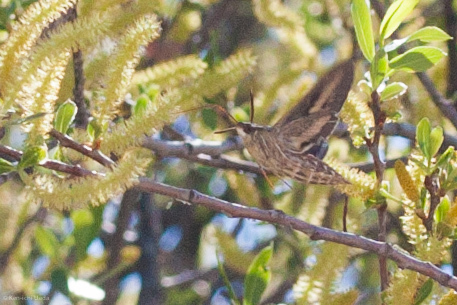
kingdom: Animalia
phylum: Arthropoda
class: Insecta
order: Lepidoptera
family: Sphingidae
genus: Hyles
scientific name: Hyles lineata
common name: White-lined sphinx
